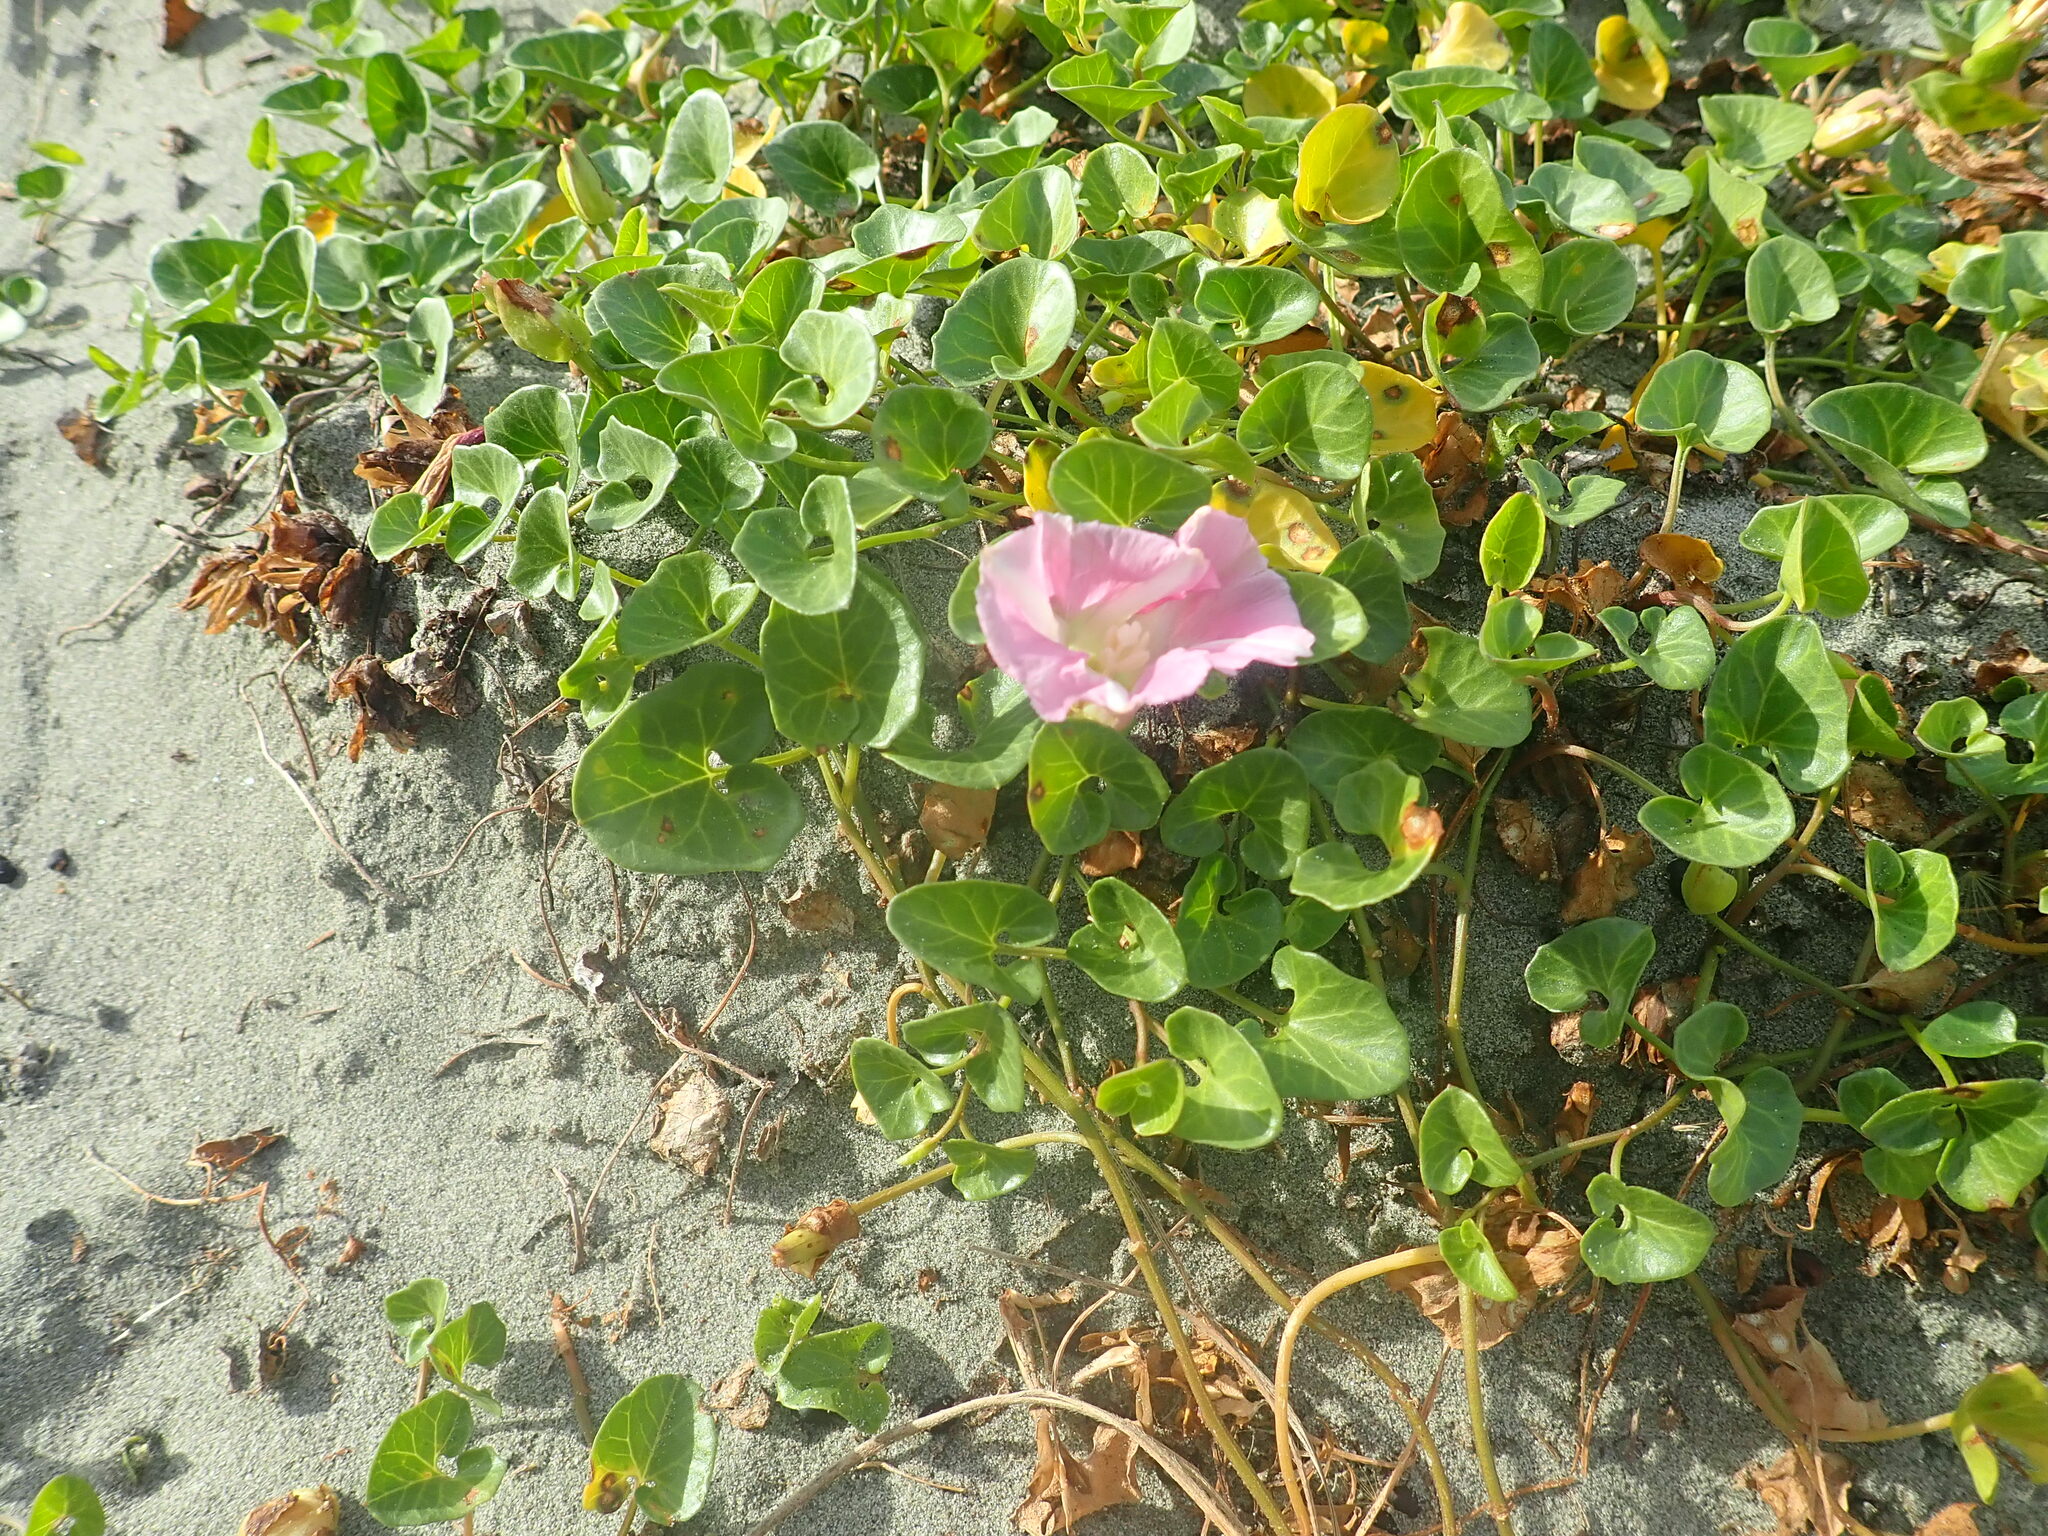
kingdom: Plantae
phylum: Tracheophyta
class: Magnoliopsida
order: Solanales
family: Convolvulaceae
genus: Calystegia
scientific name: Calystegia soldanella
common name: Sea bindweed
